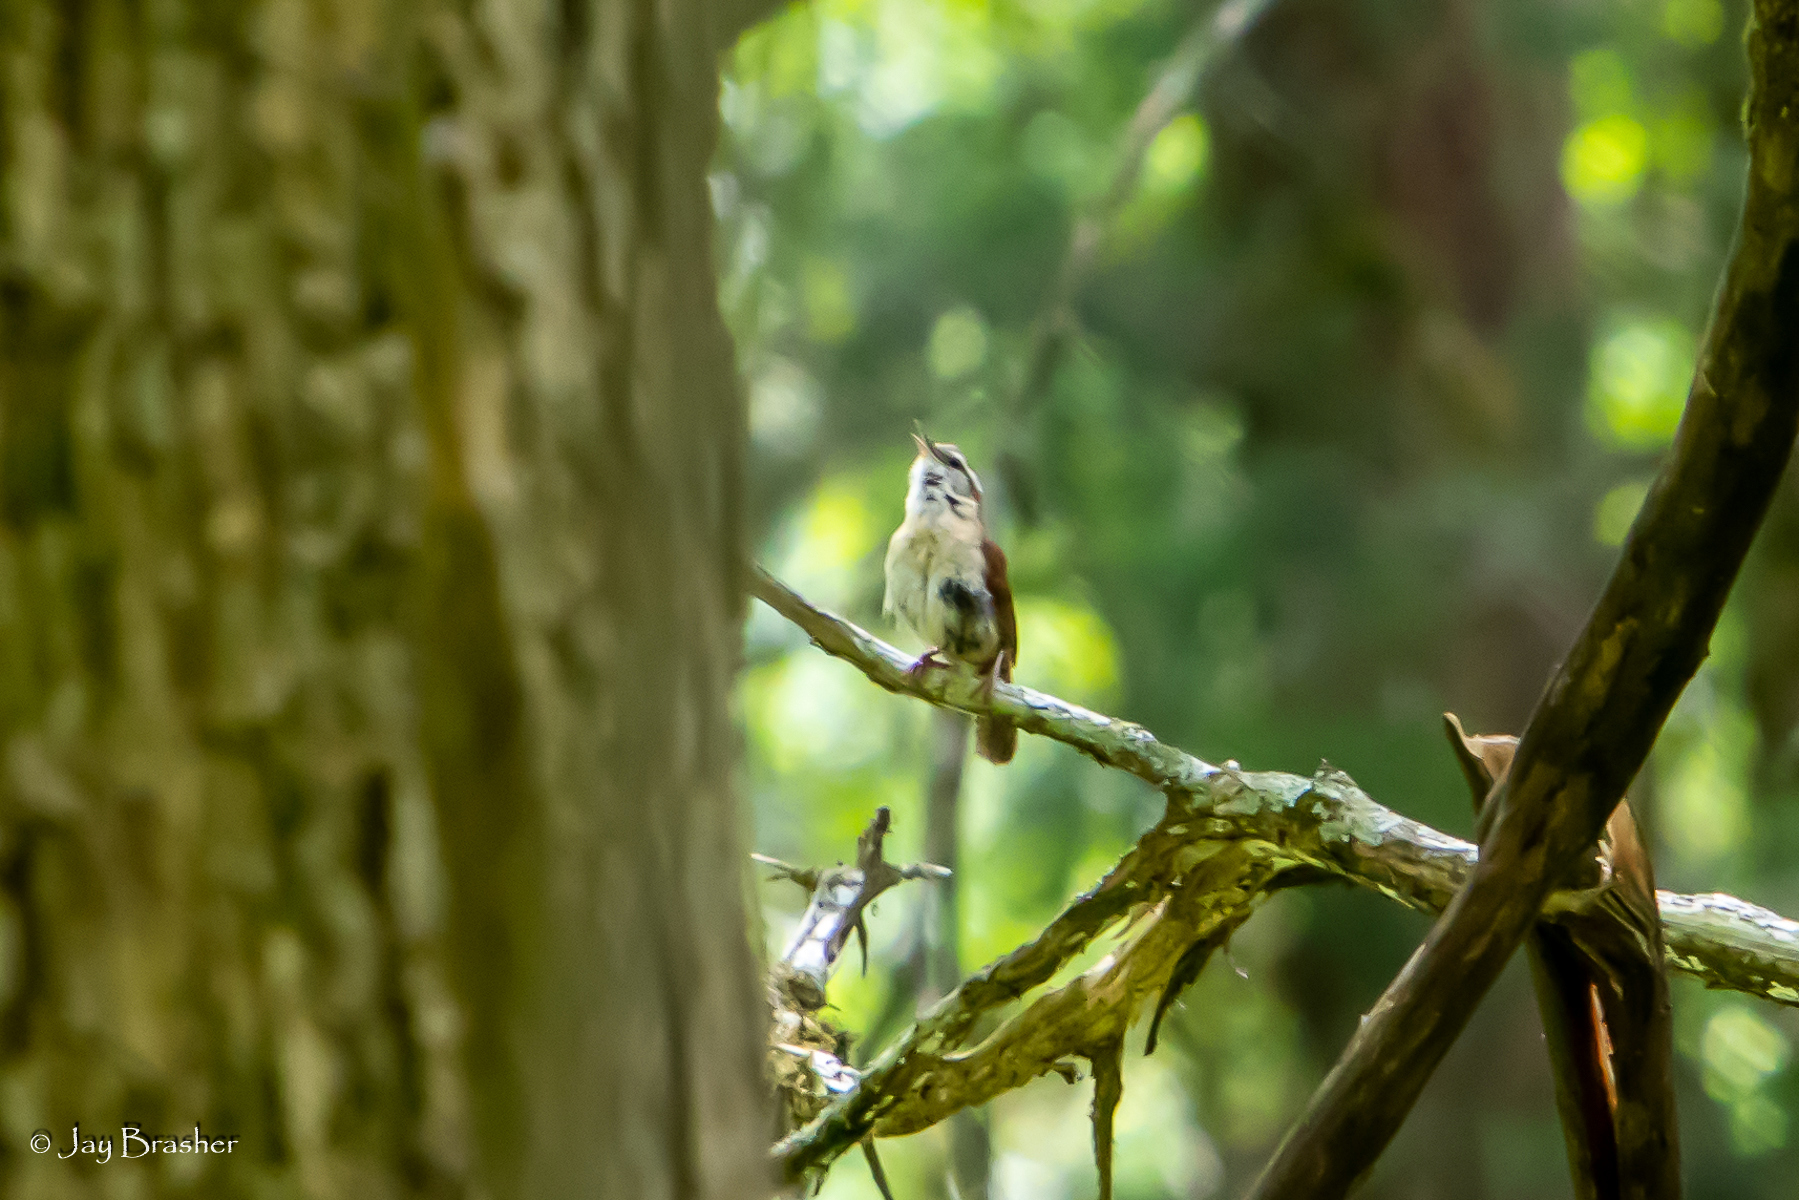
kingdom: Animalia
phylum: Chordata
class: Aves
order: Passeriformes
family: Troglodytidae
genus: Thryothorus
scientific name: Thryothorus ludovicianus
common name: Carolina wren
